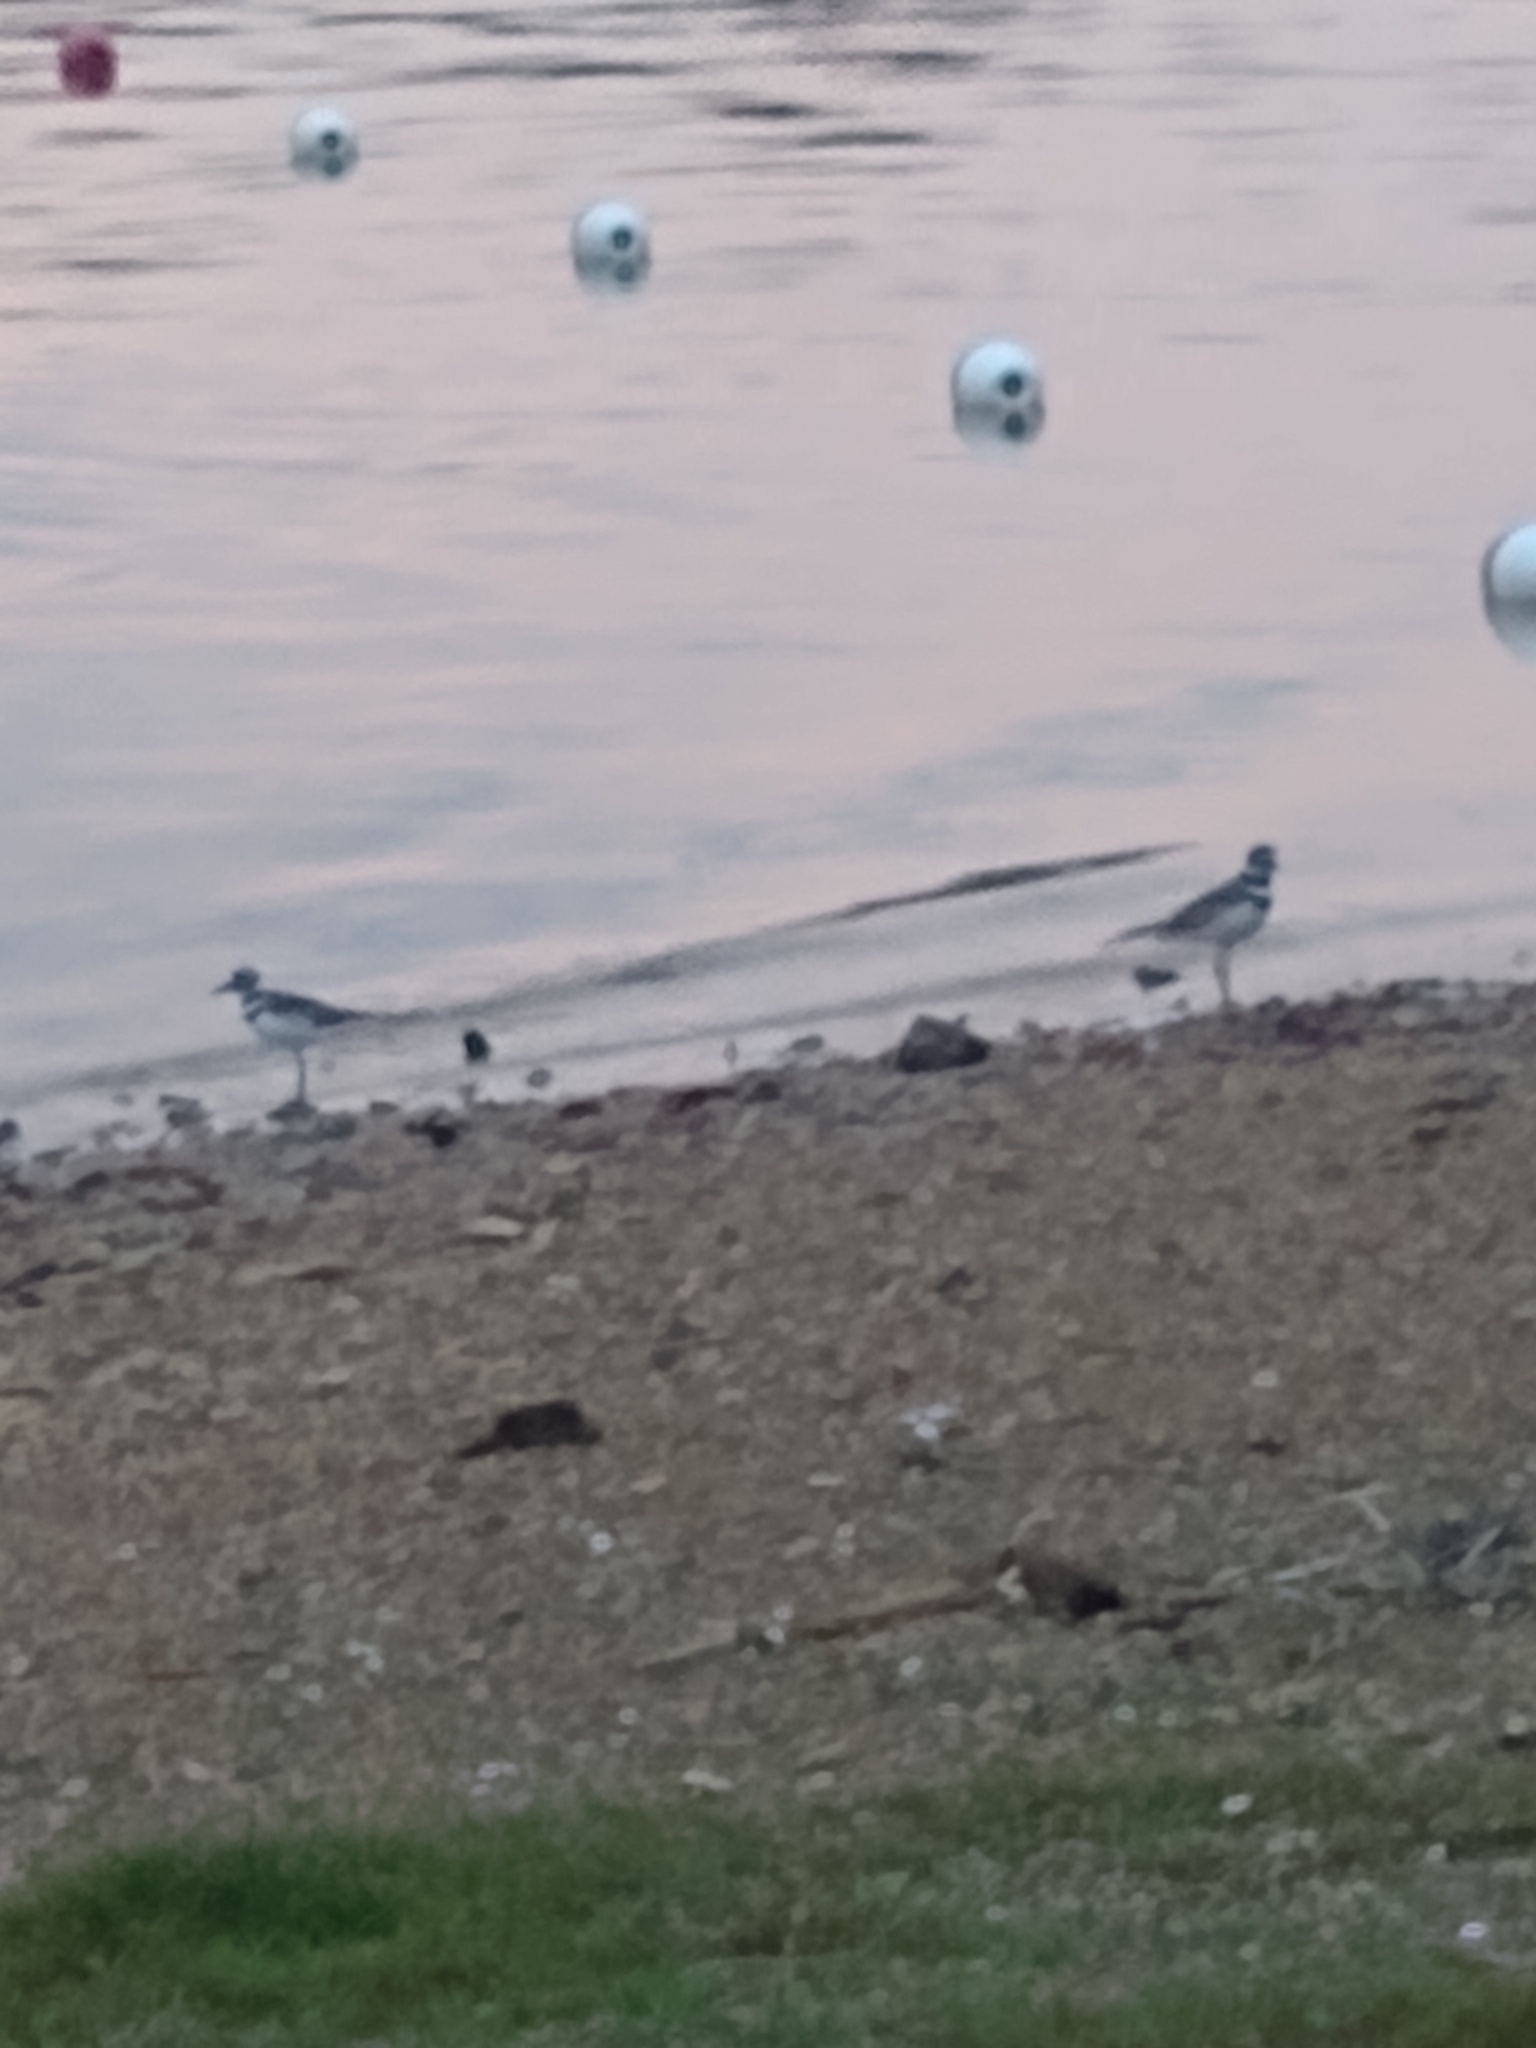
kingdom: Animalia
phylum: Chordata
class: Aves
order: Charadriiformes
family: Charadriidae
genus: Charadrius
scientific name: Charadrius vociferus
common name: Killdeer
